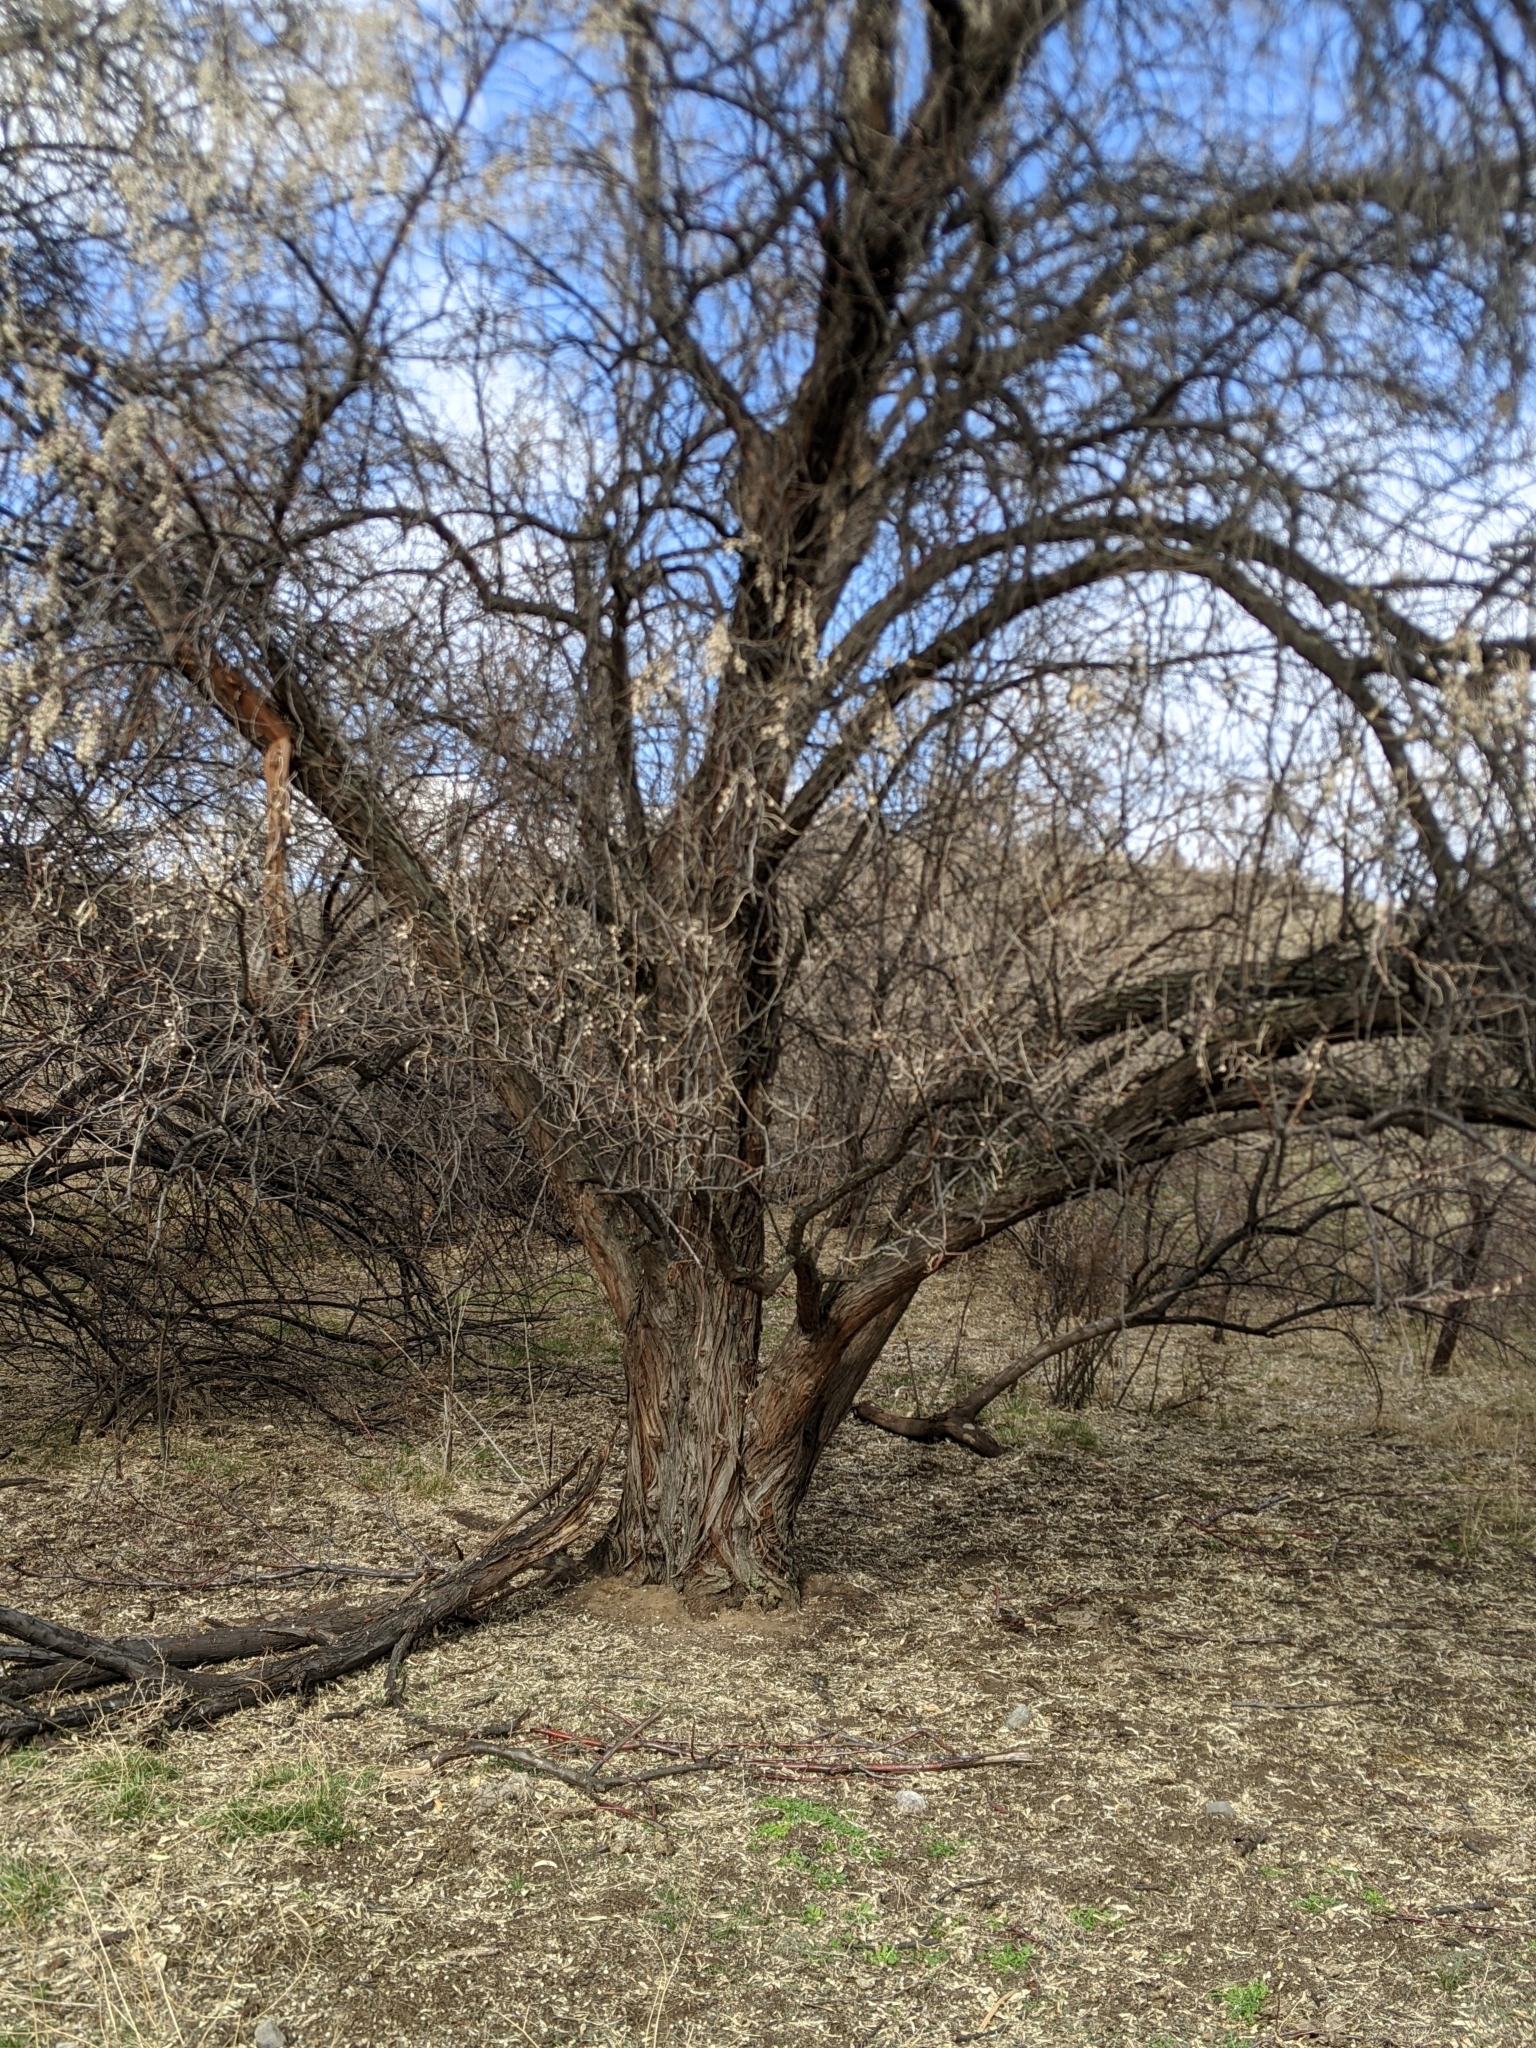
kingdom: Plantae
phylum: Tracheophyta
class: Magnoliopsida
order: Rosales
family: Elaeagnaceae
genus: Elaeagnus
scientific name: Elaeagnus angustifolia
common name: Russian olive
